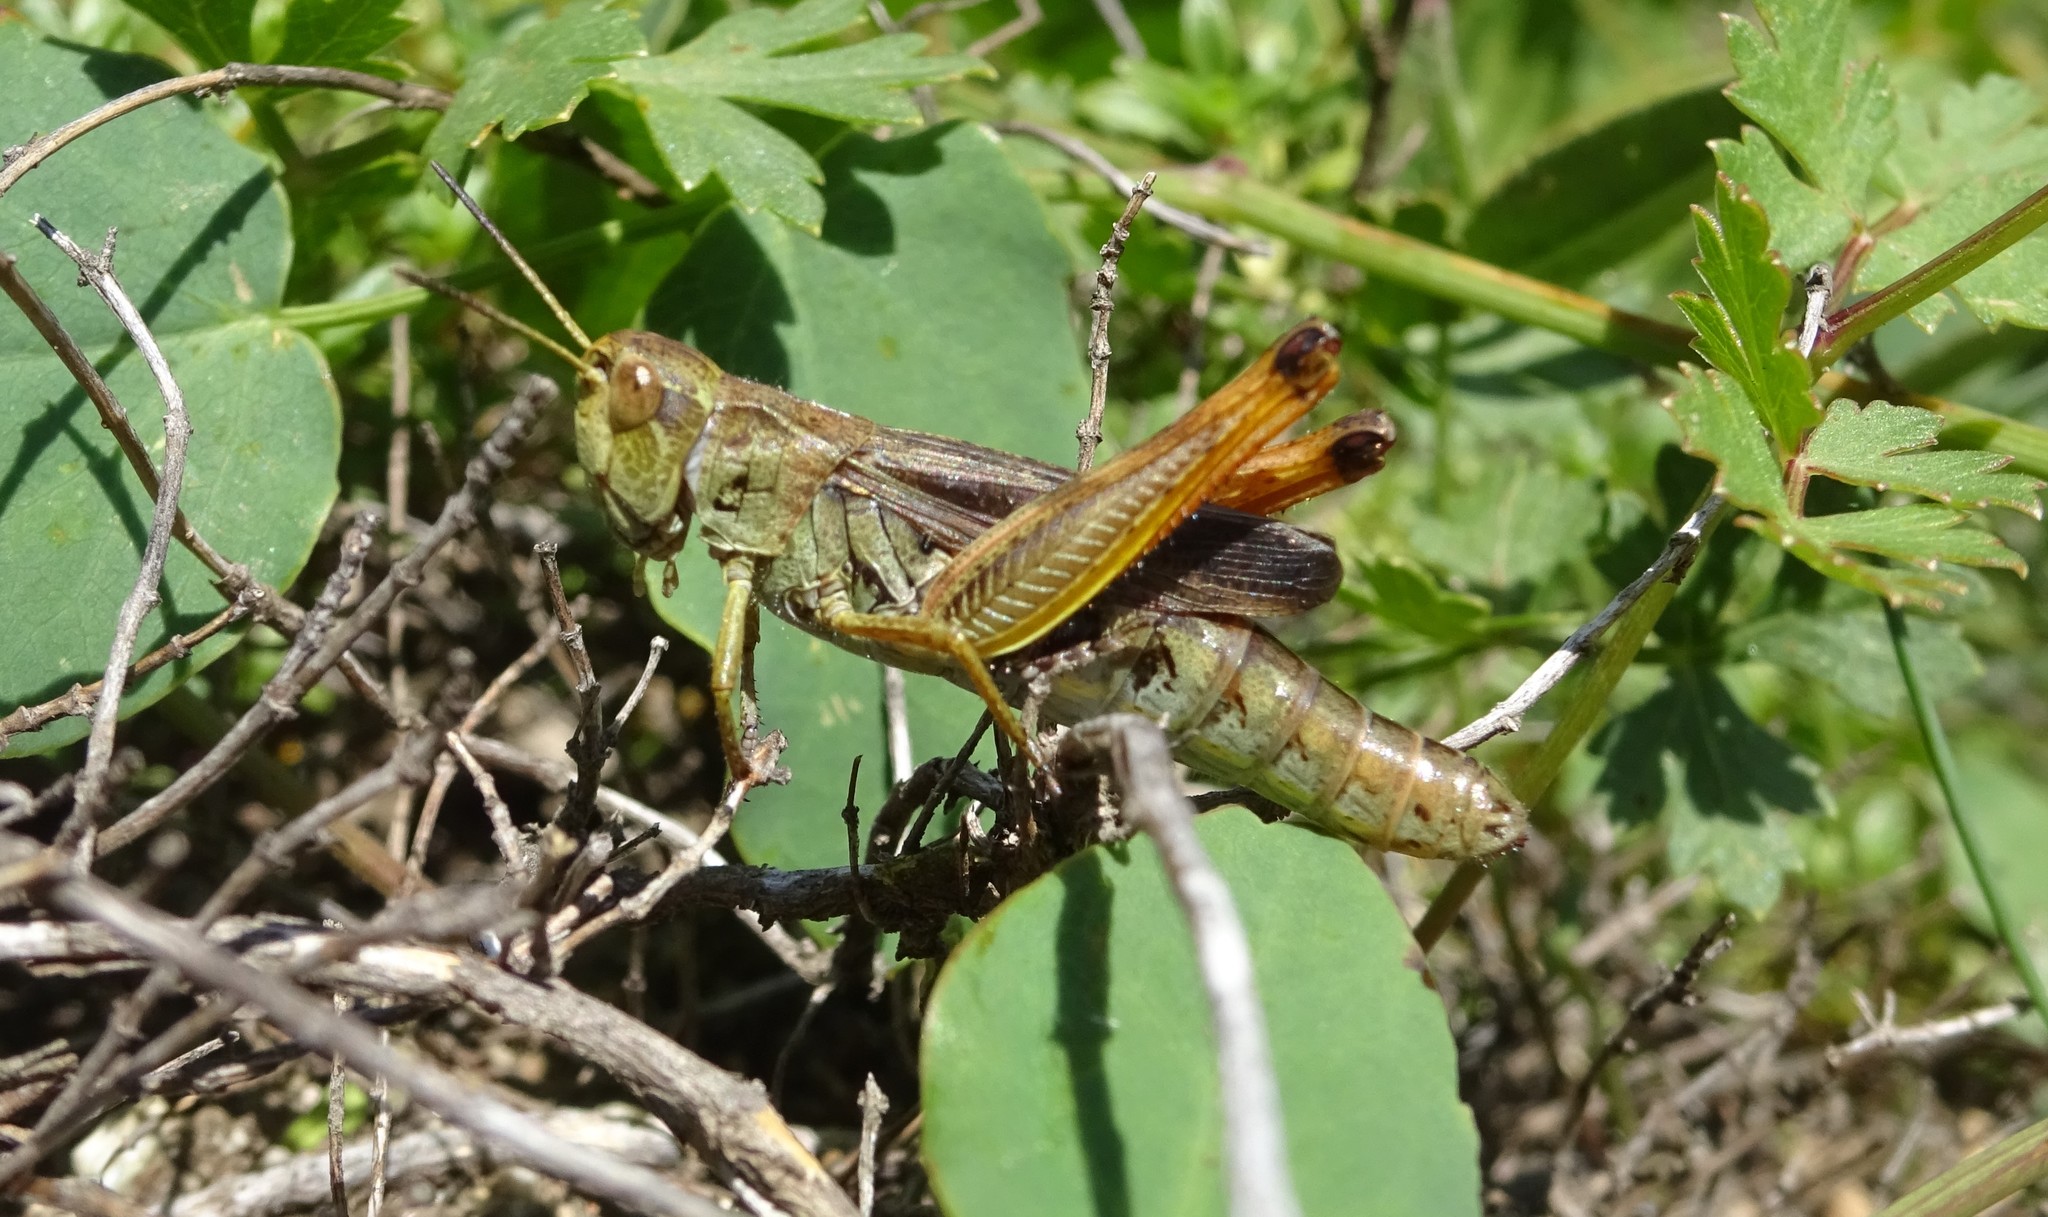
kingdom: Animalia
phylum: Arthropoda
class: Insecta
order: Orthoptera
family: Acrididae
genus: Stauroderus
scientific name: Stauroderus scalaris
